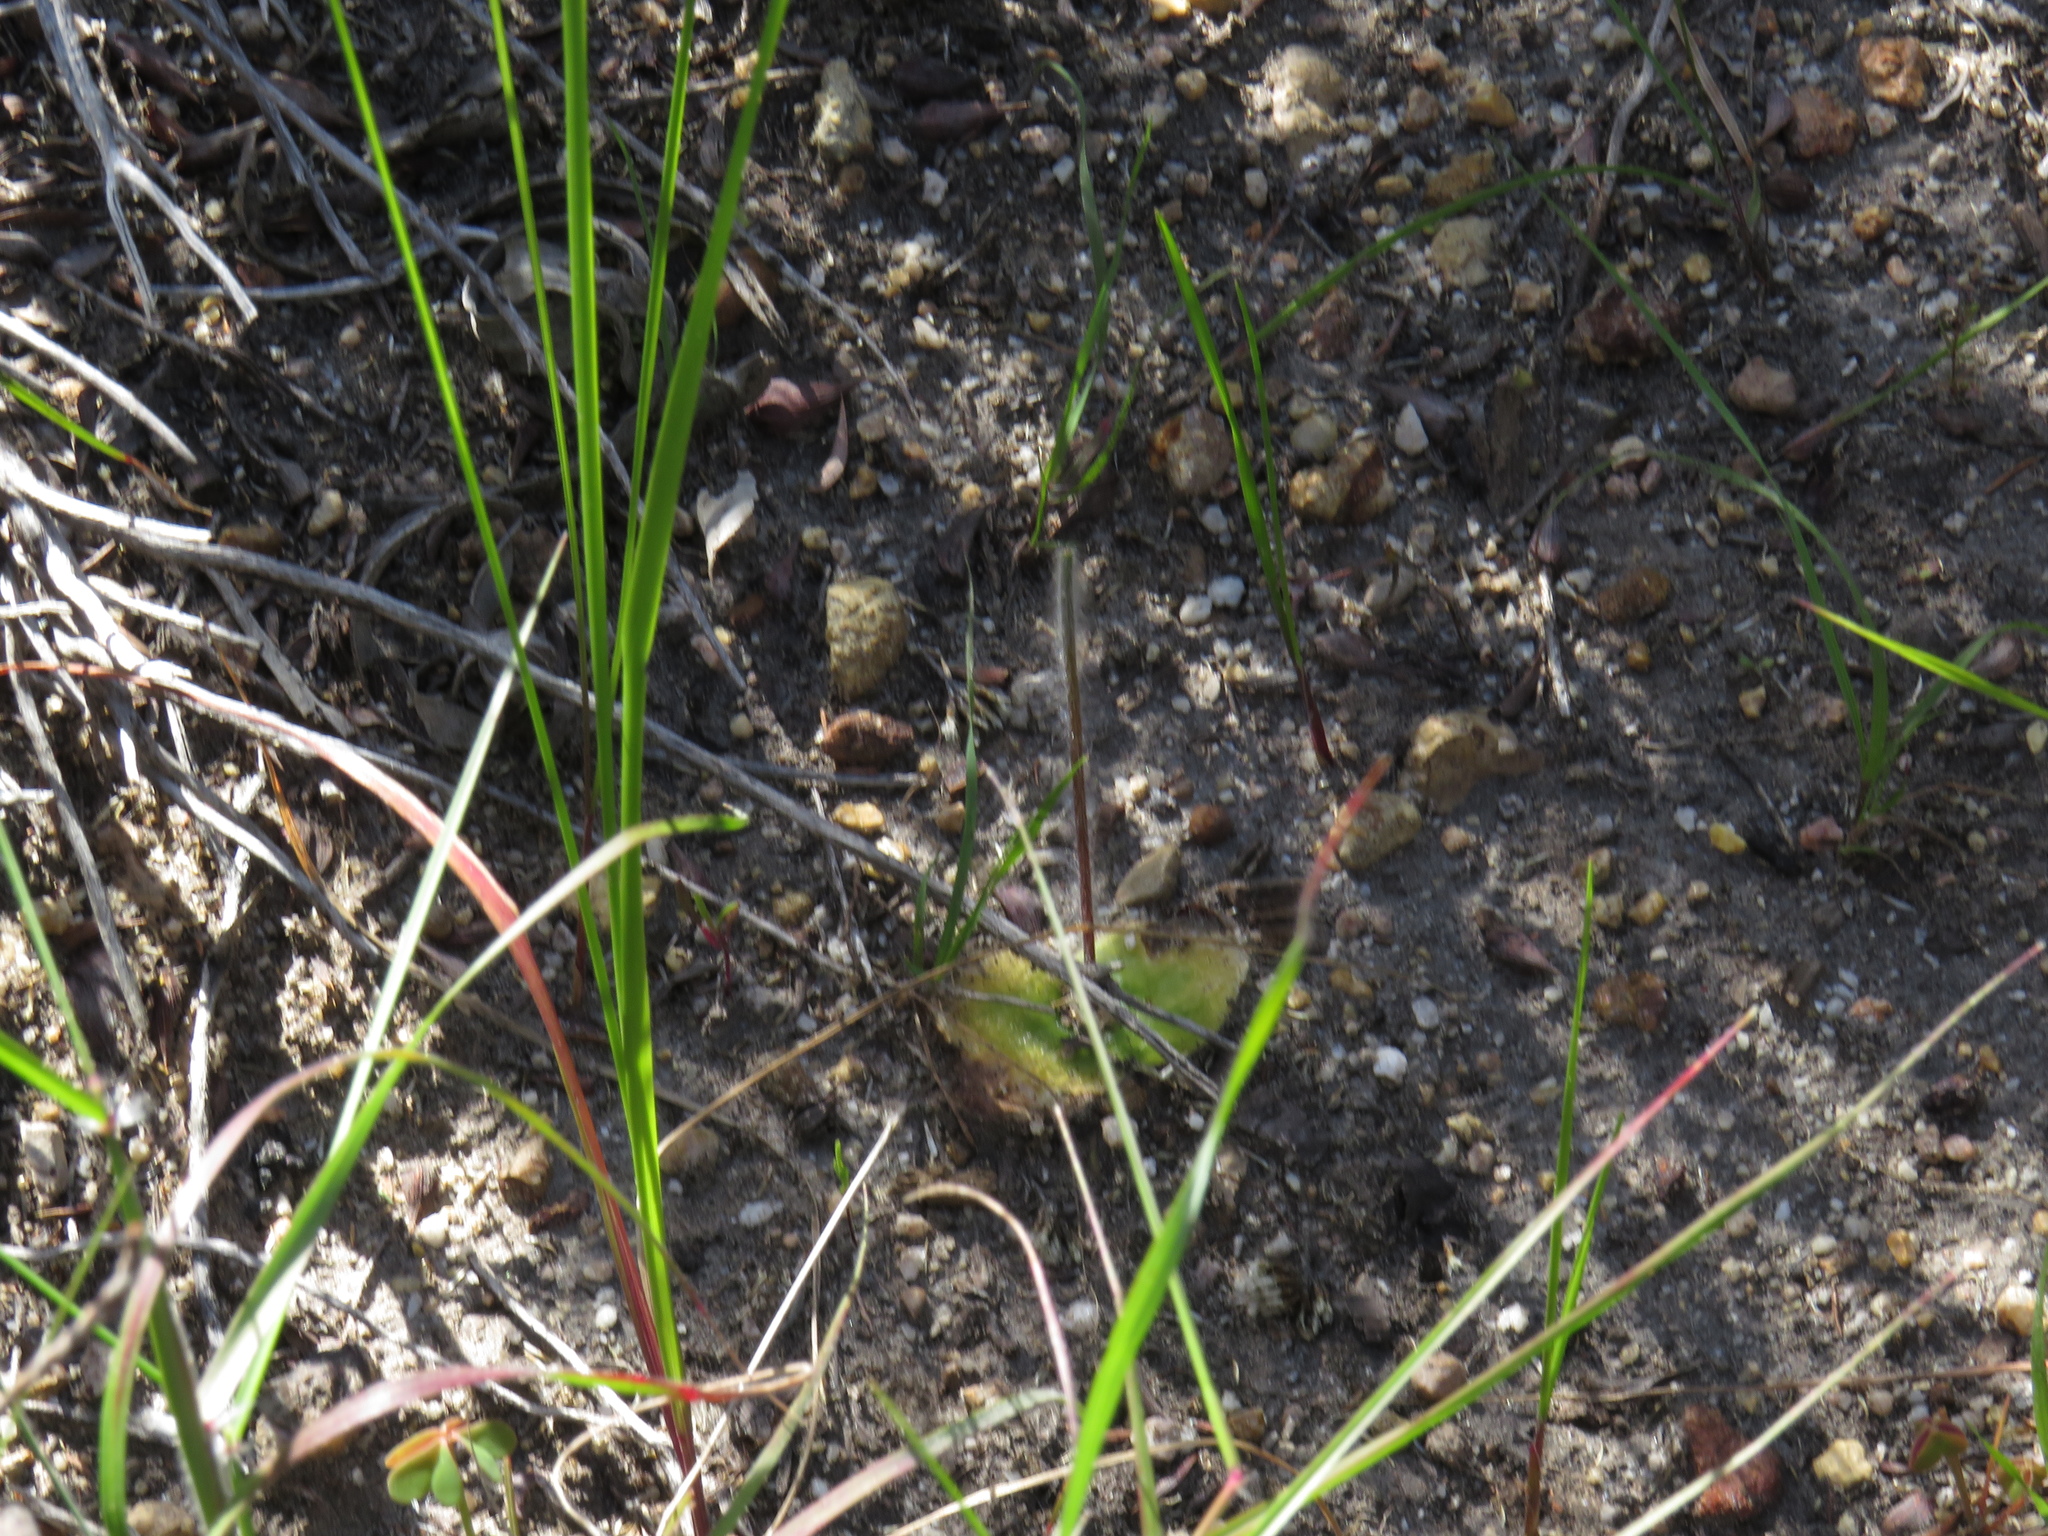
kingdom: Plantae
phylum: Tracheophyta
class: Liliopsida
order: Asparagales
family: Orchidaceae
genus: Holothrix
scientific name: Holothrix villosa
